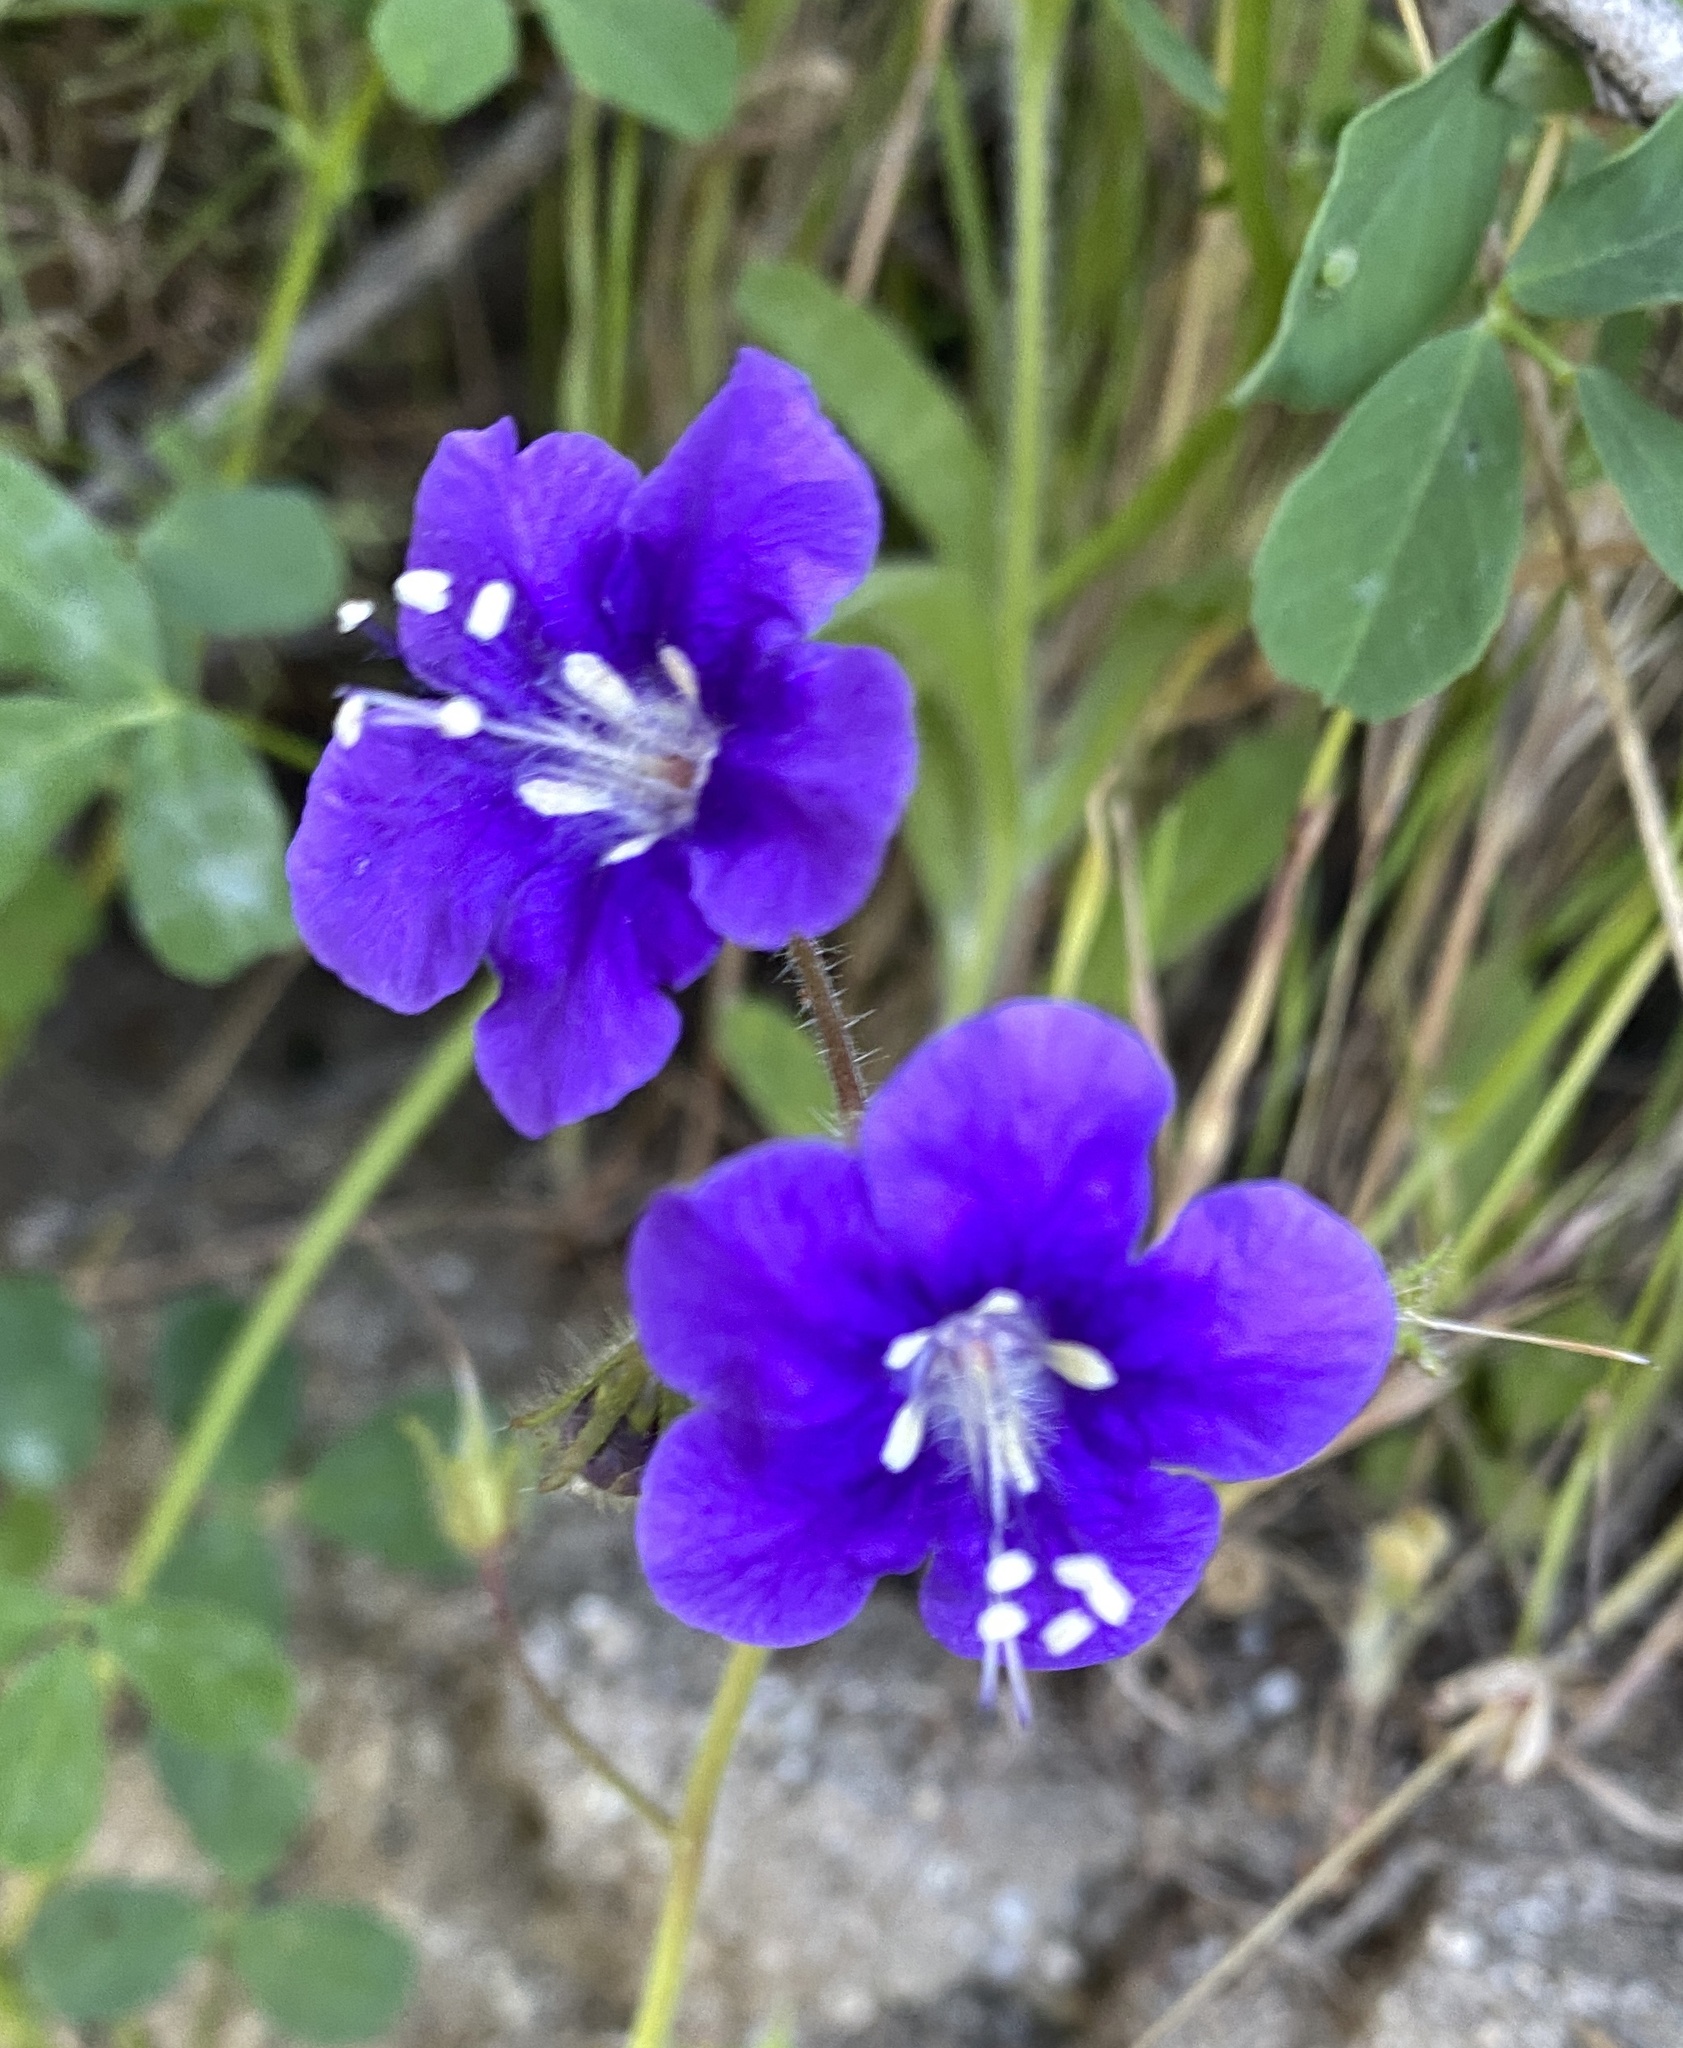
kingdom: Plantae
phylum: Tracheophyta
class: Magnoliopsida
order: Boraginales
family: Hydrophyllaceae
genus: Phacelia
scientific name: Phacelia parryi
